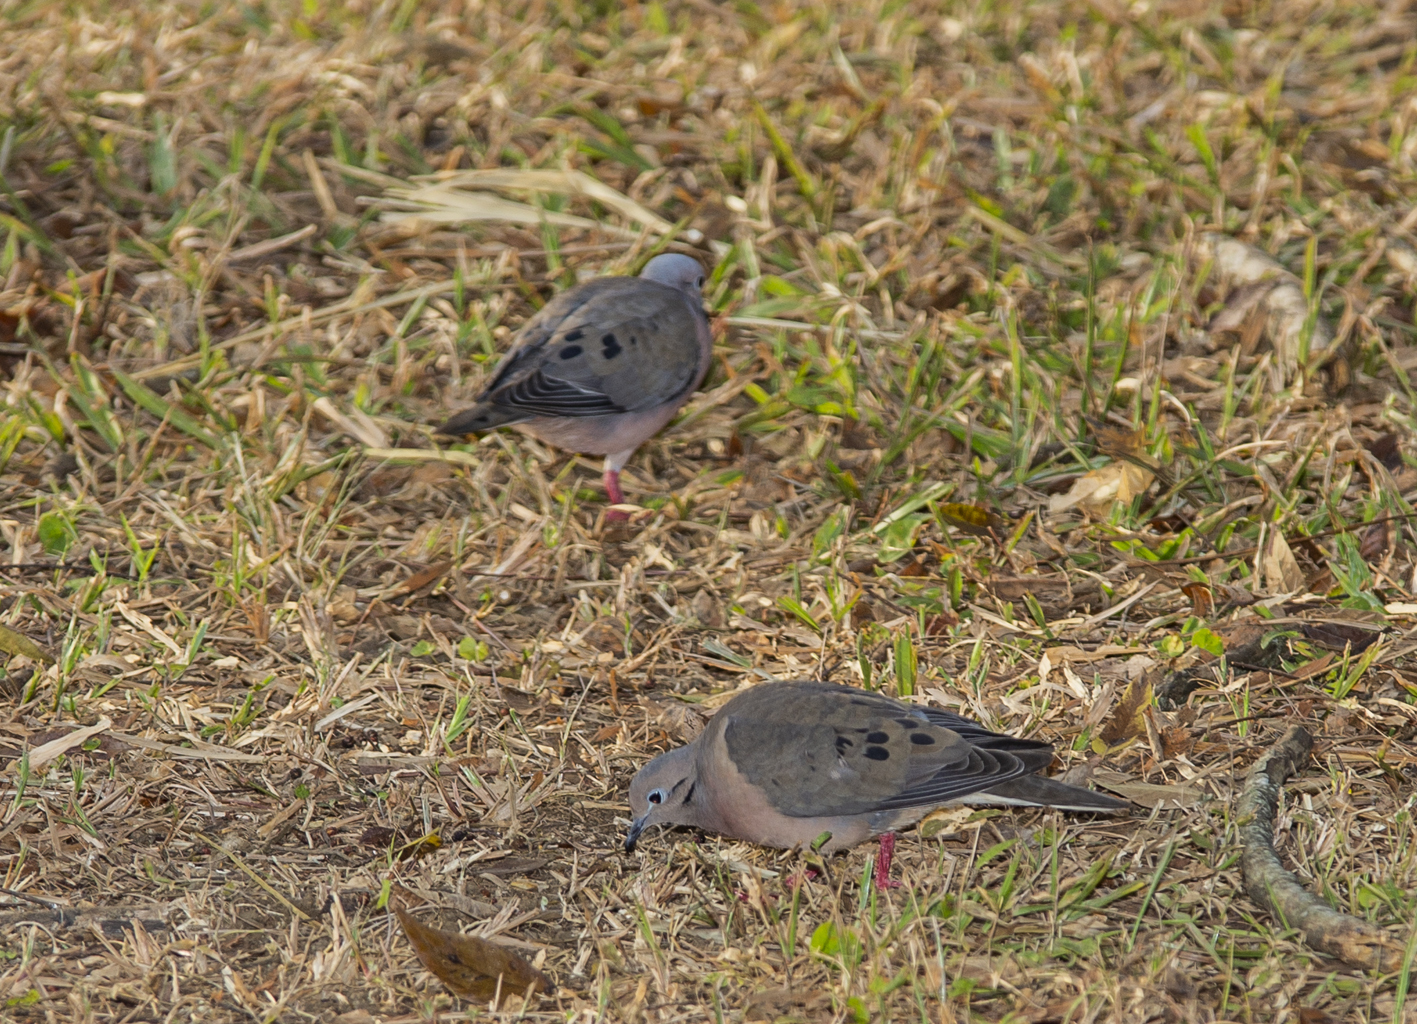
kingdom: Animalia
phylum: Chordata
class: Aves
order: Columbiformes
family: Columbidae
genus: Zenaida
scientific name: Zenaida auriculata
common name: Eared dove
